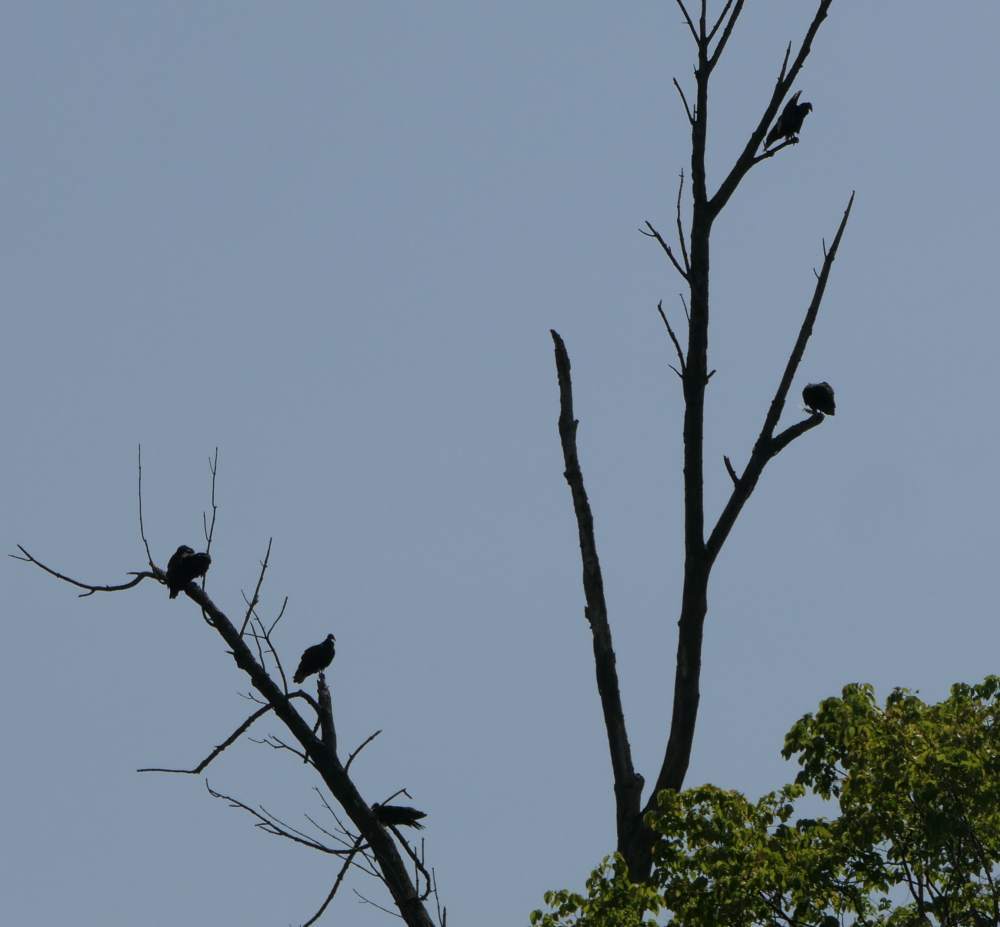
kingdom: Animalia
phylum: Chordata
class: Aves
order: Accipitriformes
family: Cathartidae
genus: Cathartes
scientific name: Cathartes aura
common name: Turkey vulture
